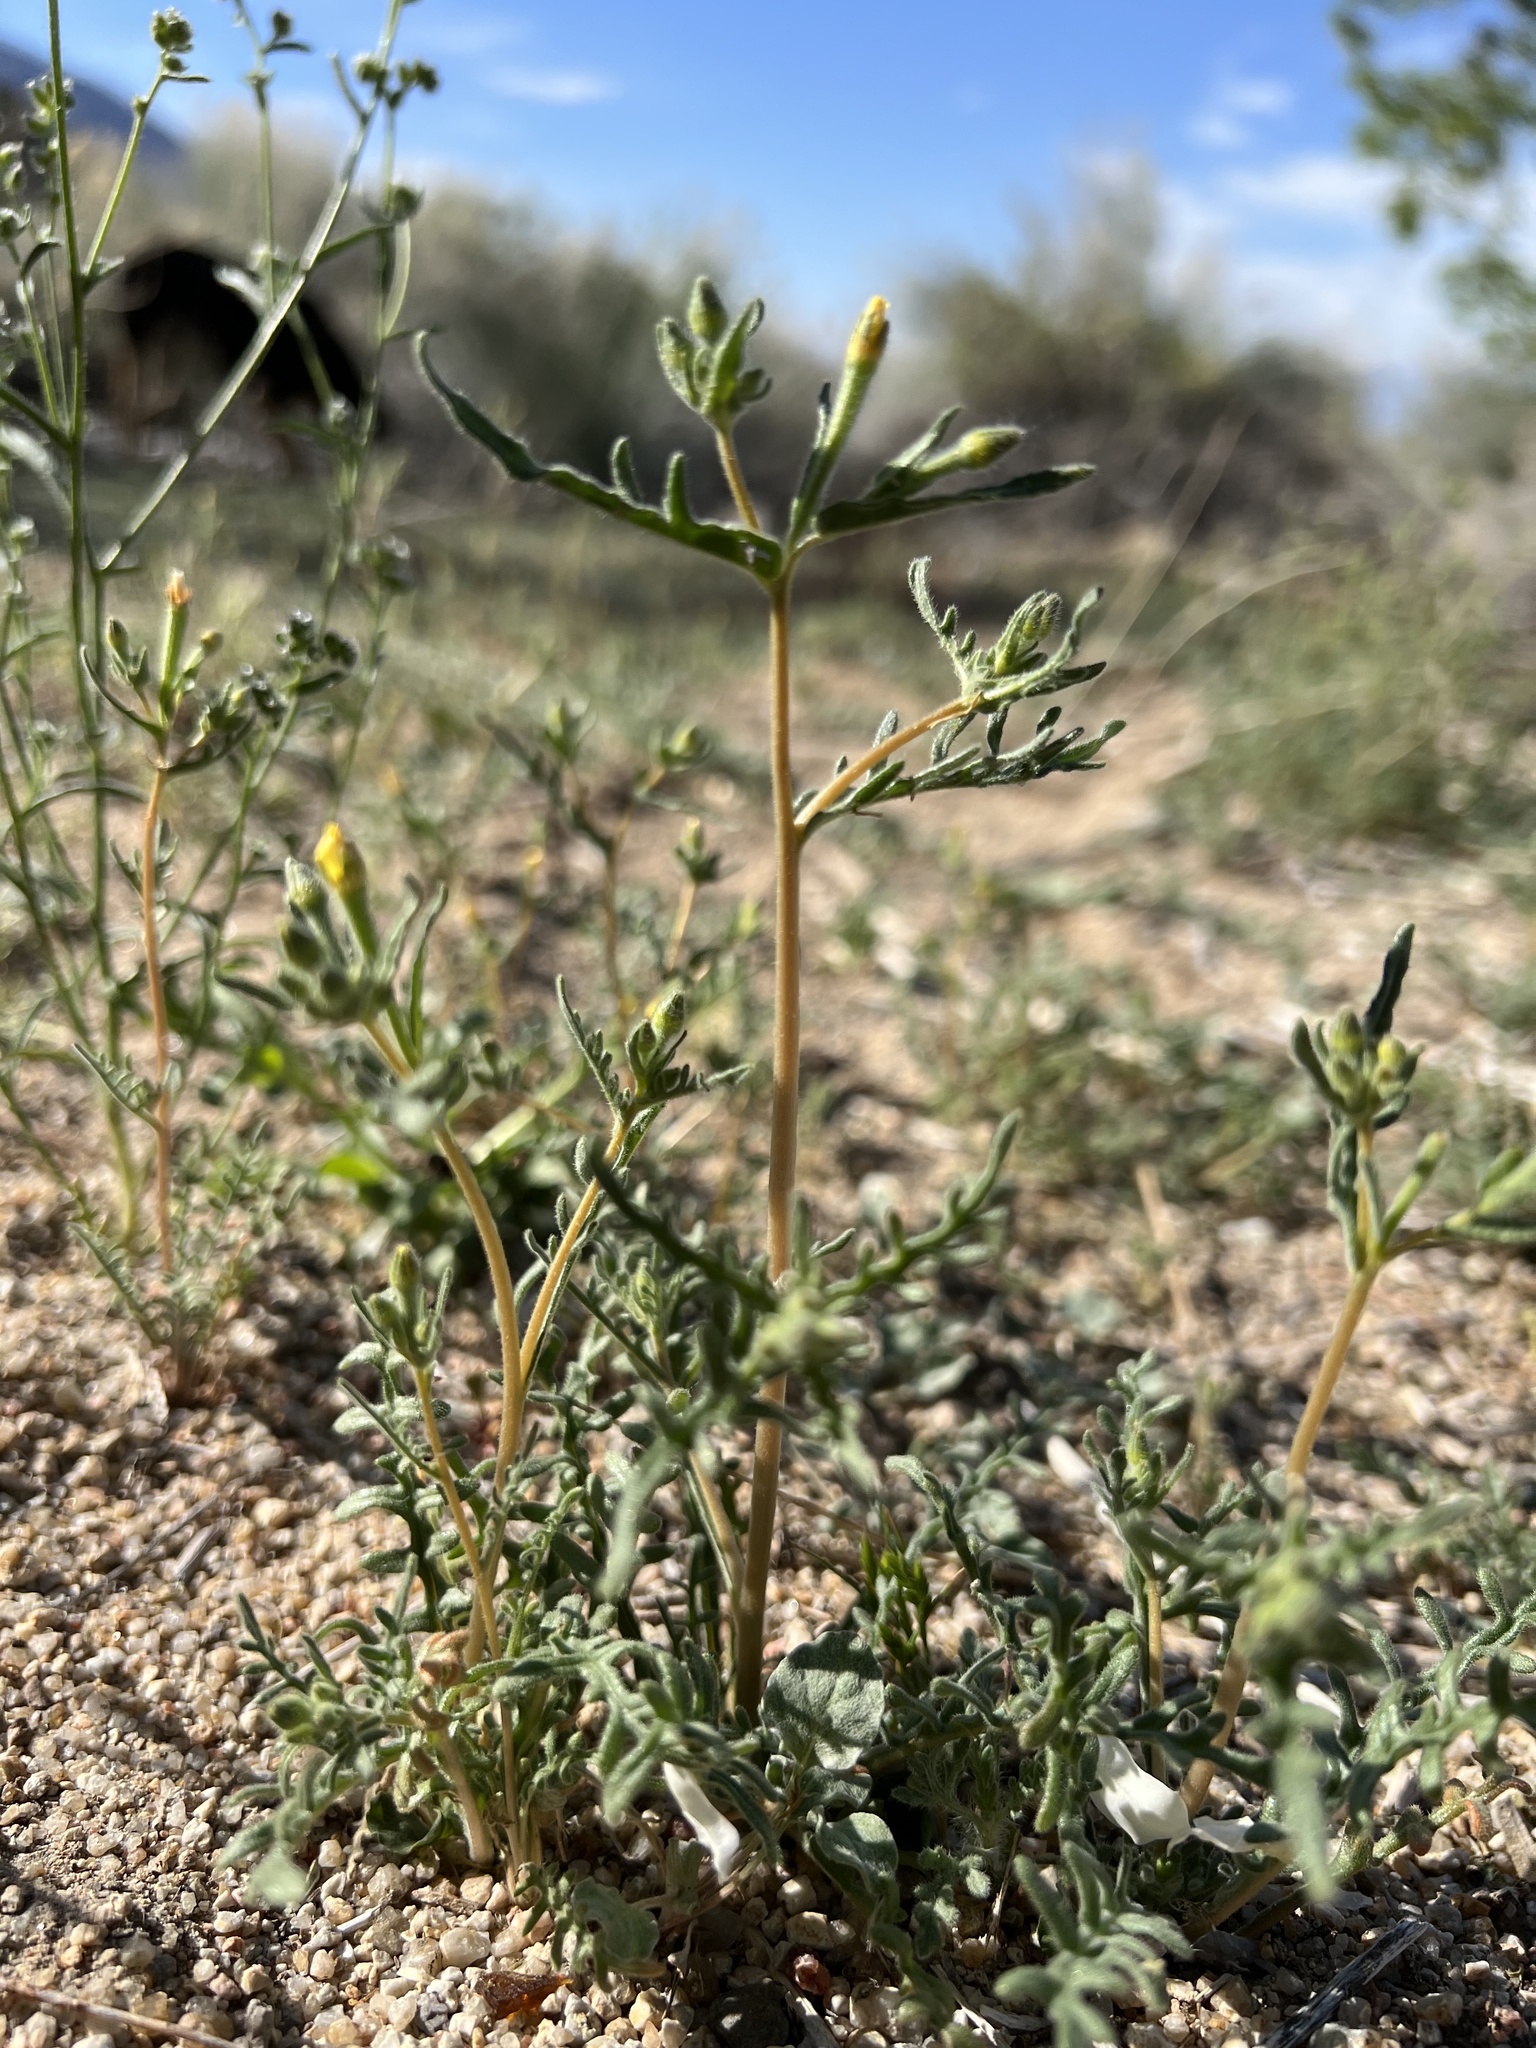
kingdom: Plantae
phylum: Tracheophyta
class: Magnoliopsida
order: Cornales
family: Loasaceae
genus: Mentzelia
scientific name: Mentzelia albicaulis
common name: White-stem blazingstar
